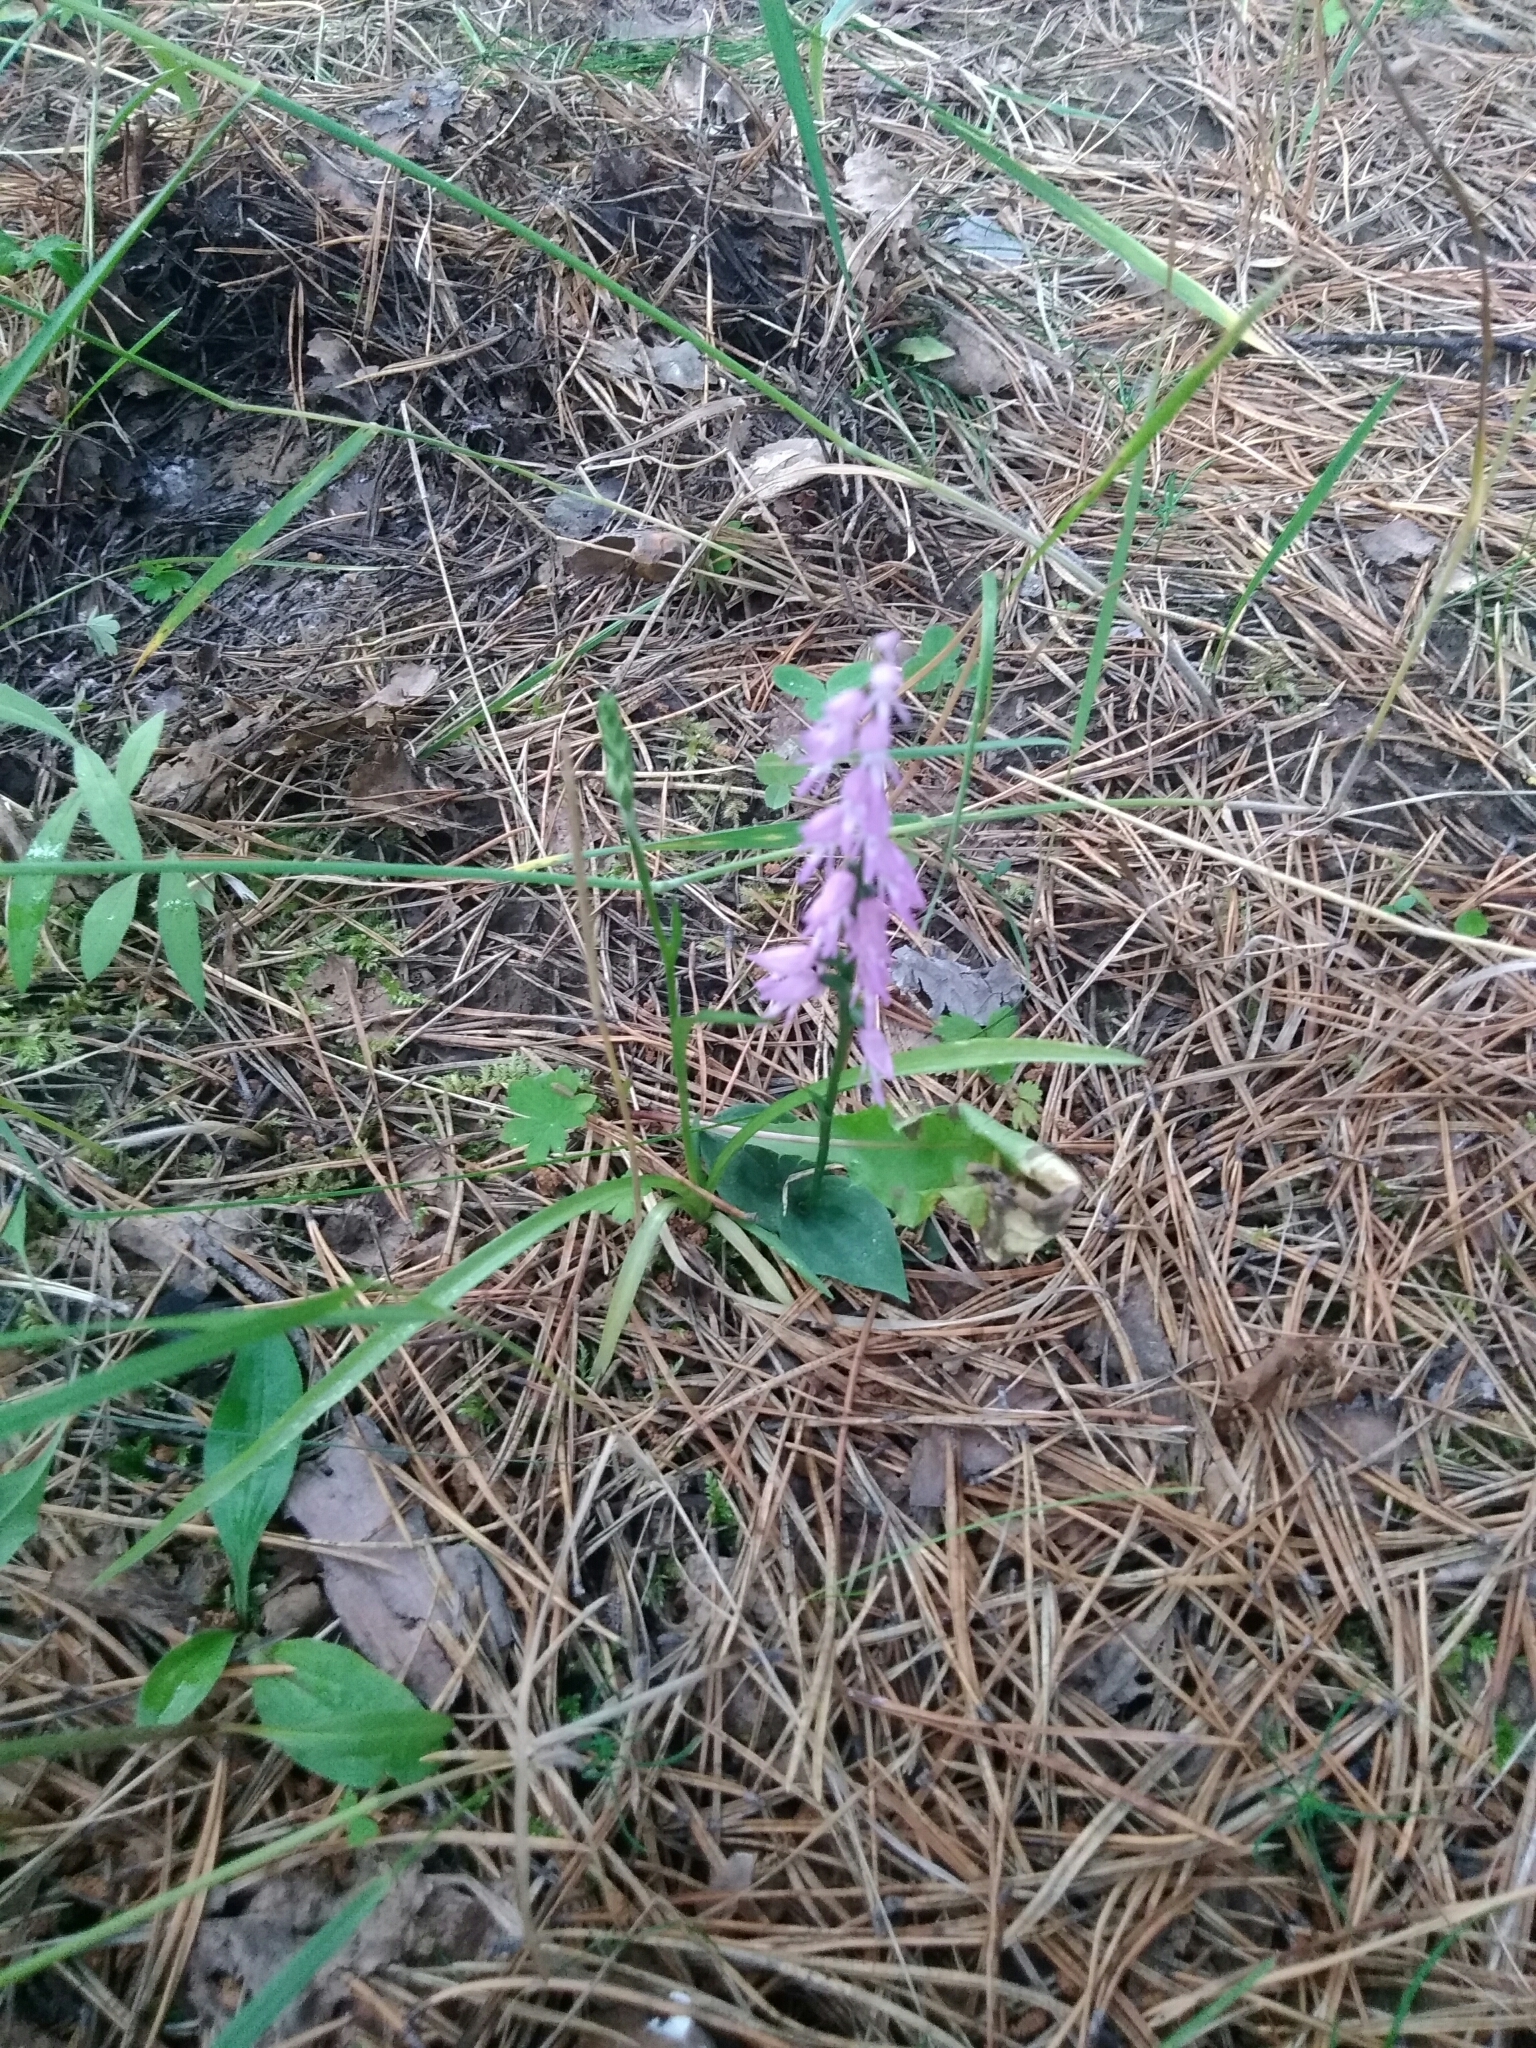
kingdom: Plantae
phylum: Tracheophyta
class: Liliopsida
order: Asparagales
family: Orchidaceae
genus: Hemipilia
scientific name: Hemipilia cucullata
